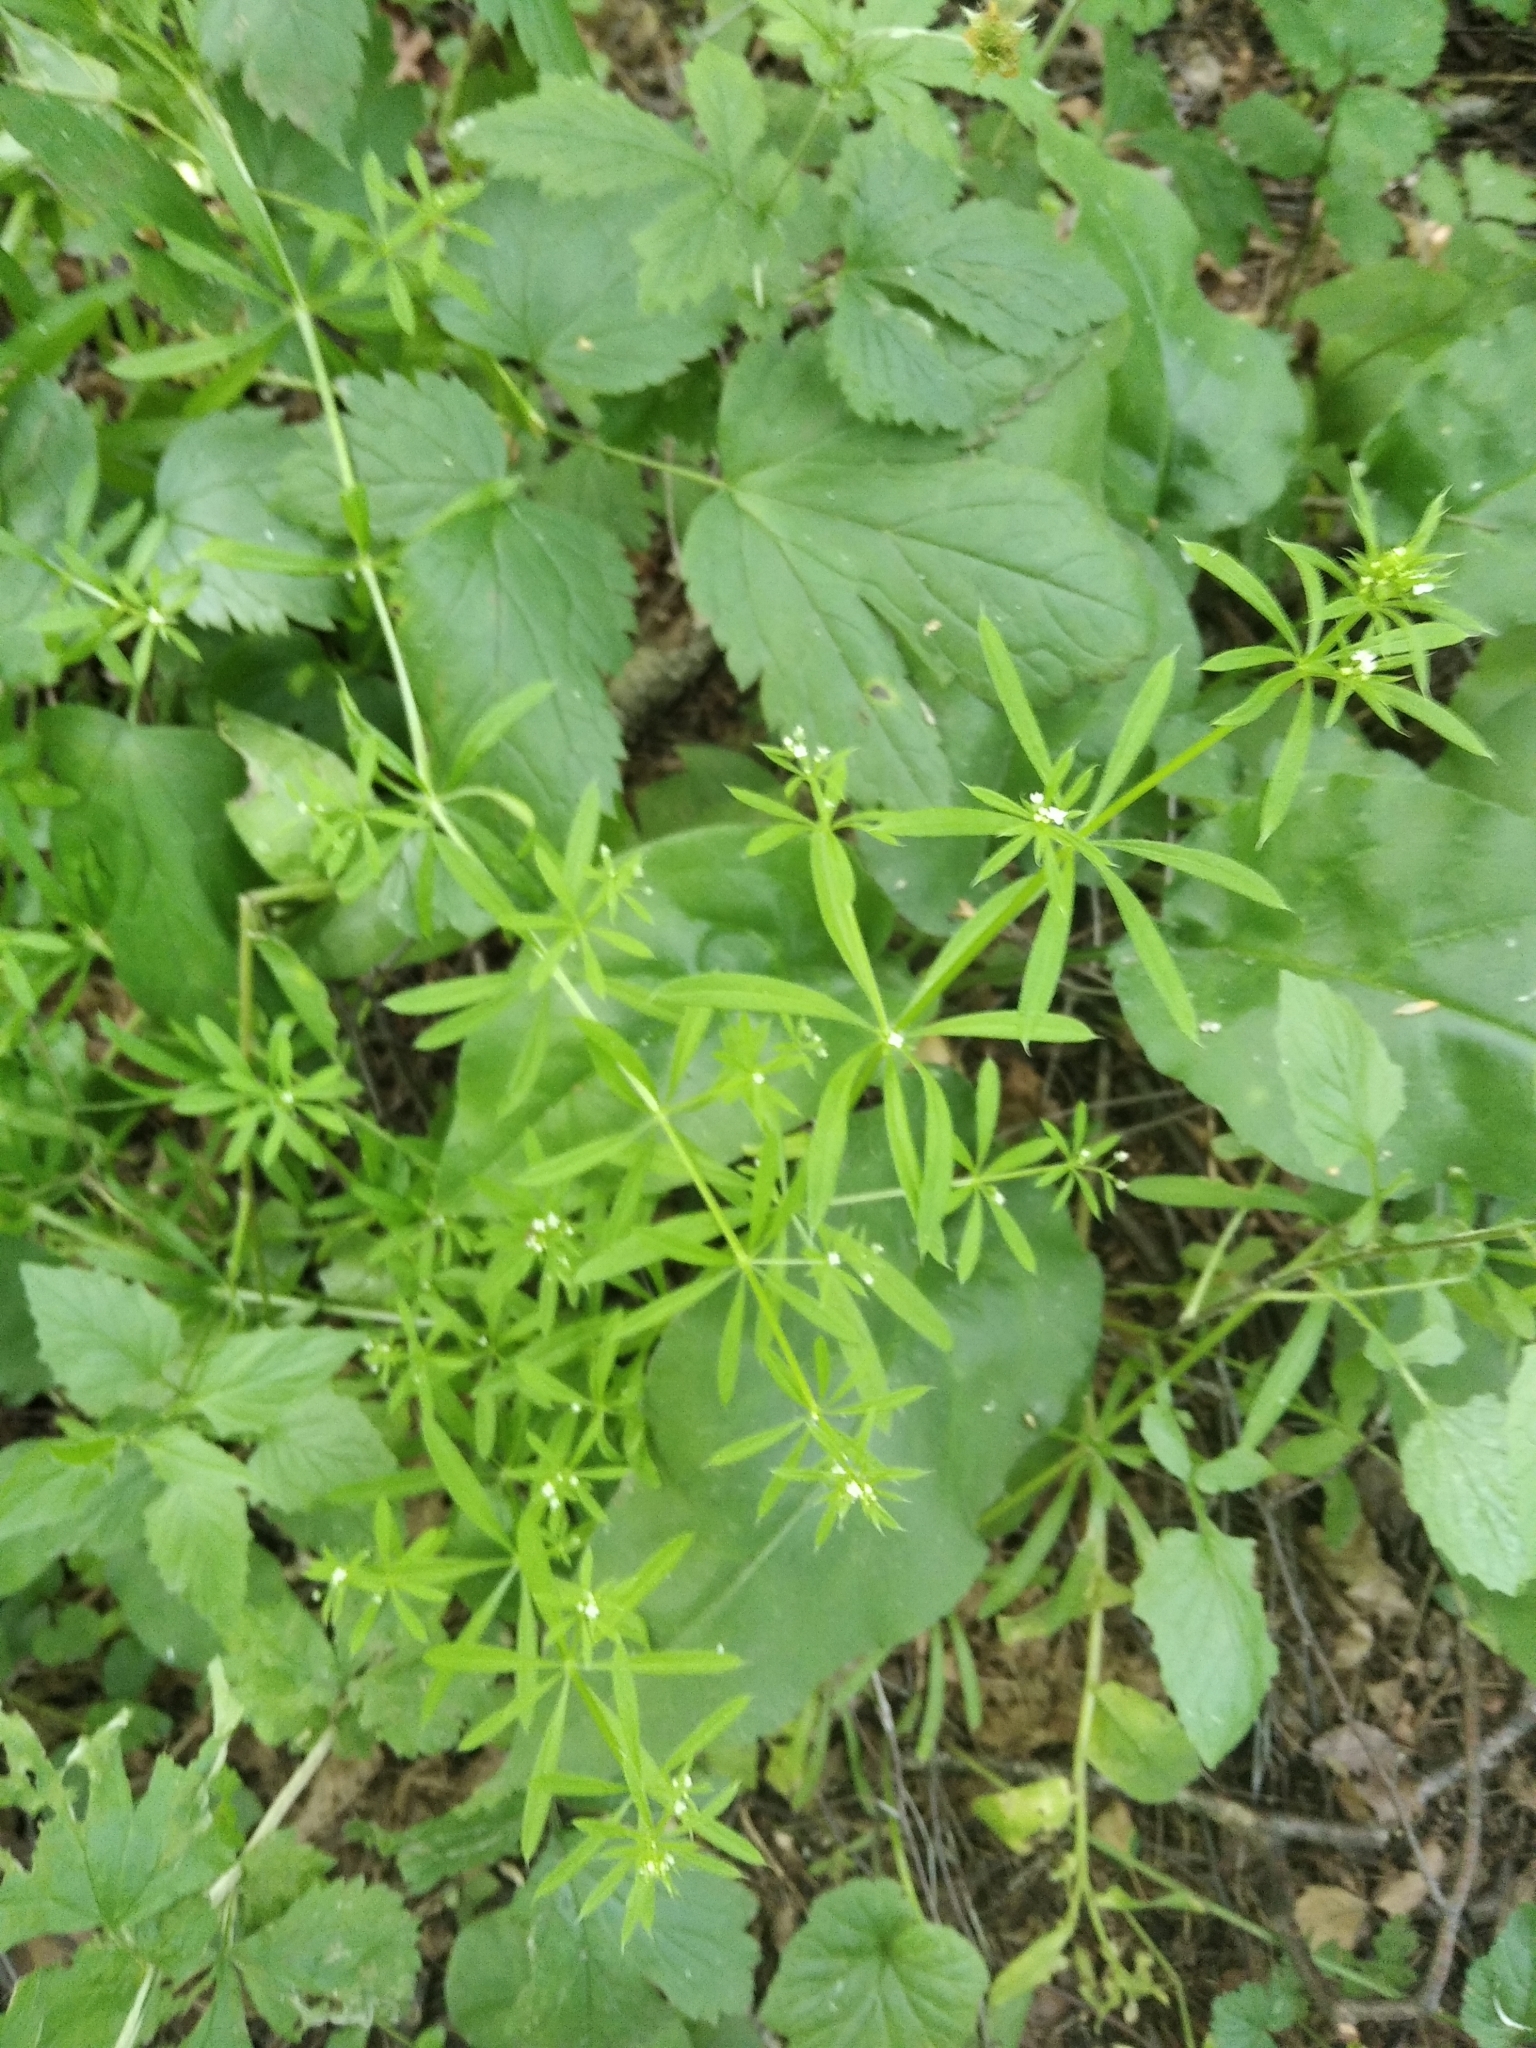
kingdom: Plantae
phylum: Tracheophyta
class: Magnoliopsida
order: Gentianales
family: Rubiaceae
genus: Galium
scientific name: Galium aparine
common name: Cleavers
